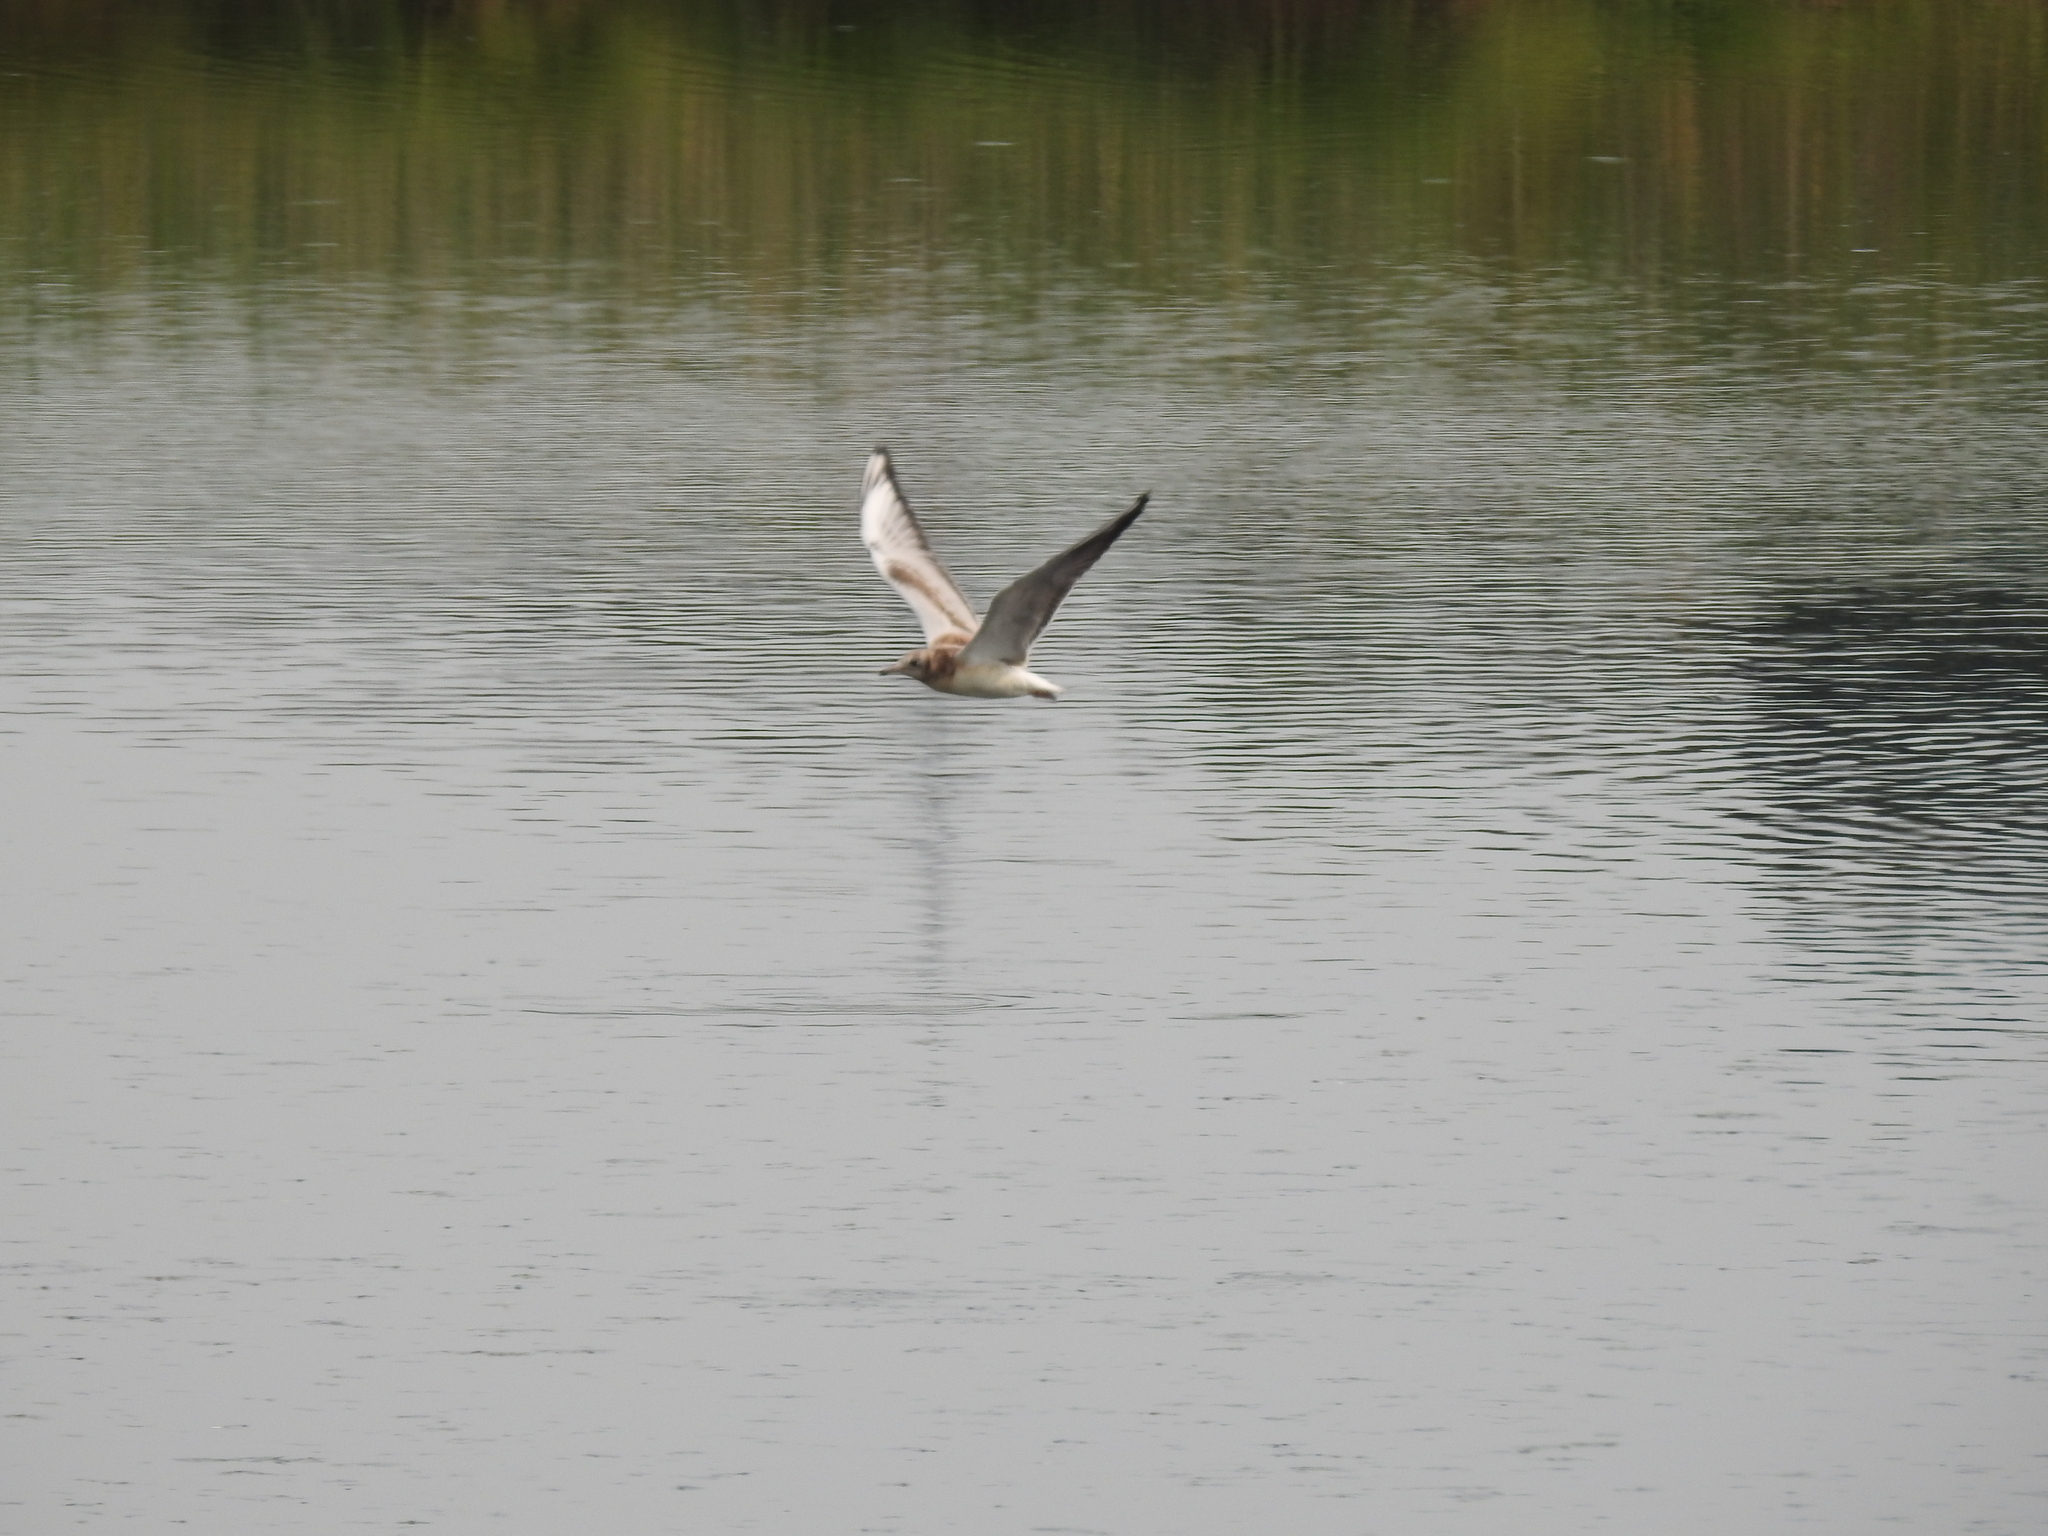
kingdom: Animalia
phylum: Chordata
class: Aves
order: Charadriiformes
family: Laridae
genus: Chroicocephalus
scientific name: Chroicocephalus ridibundus
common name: Black-headed gull
